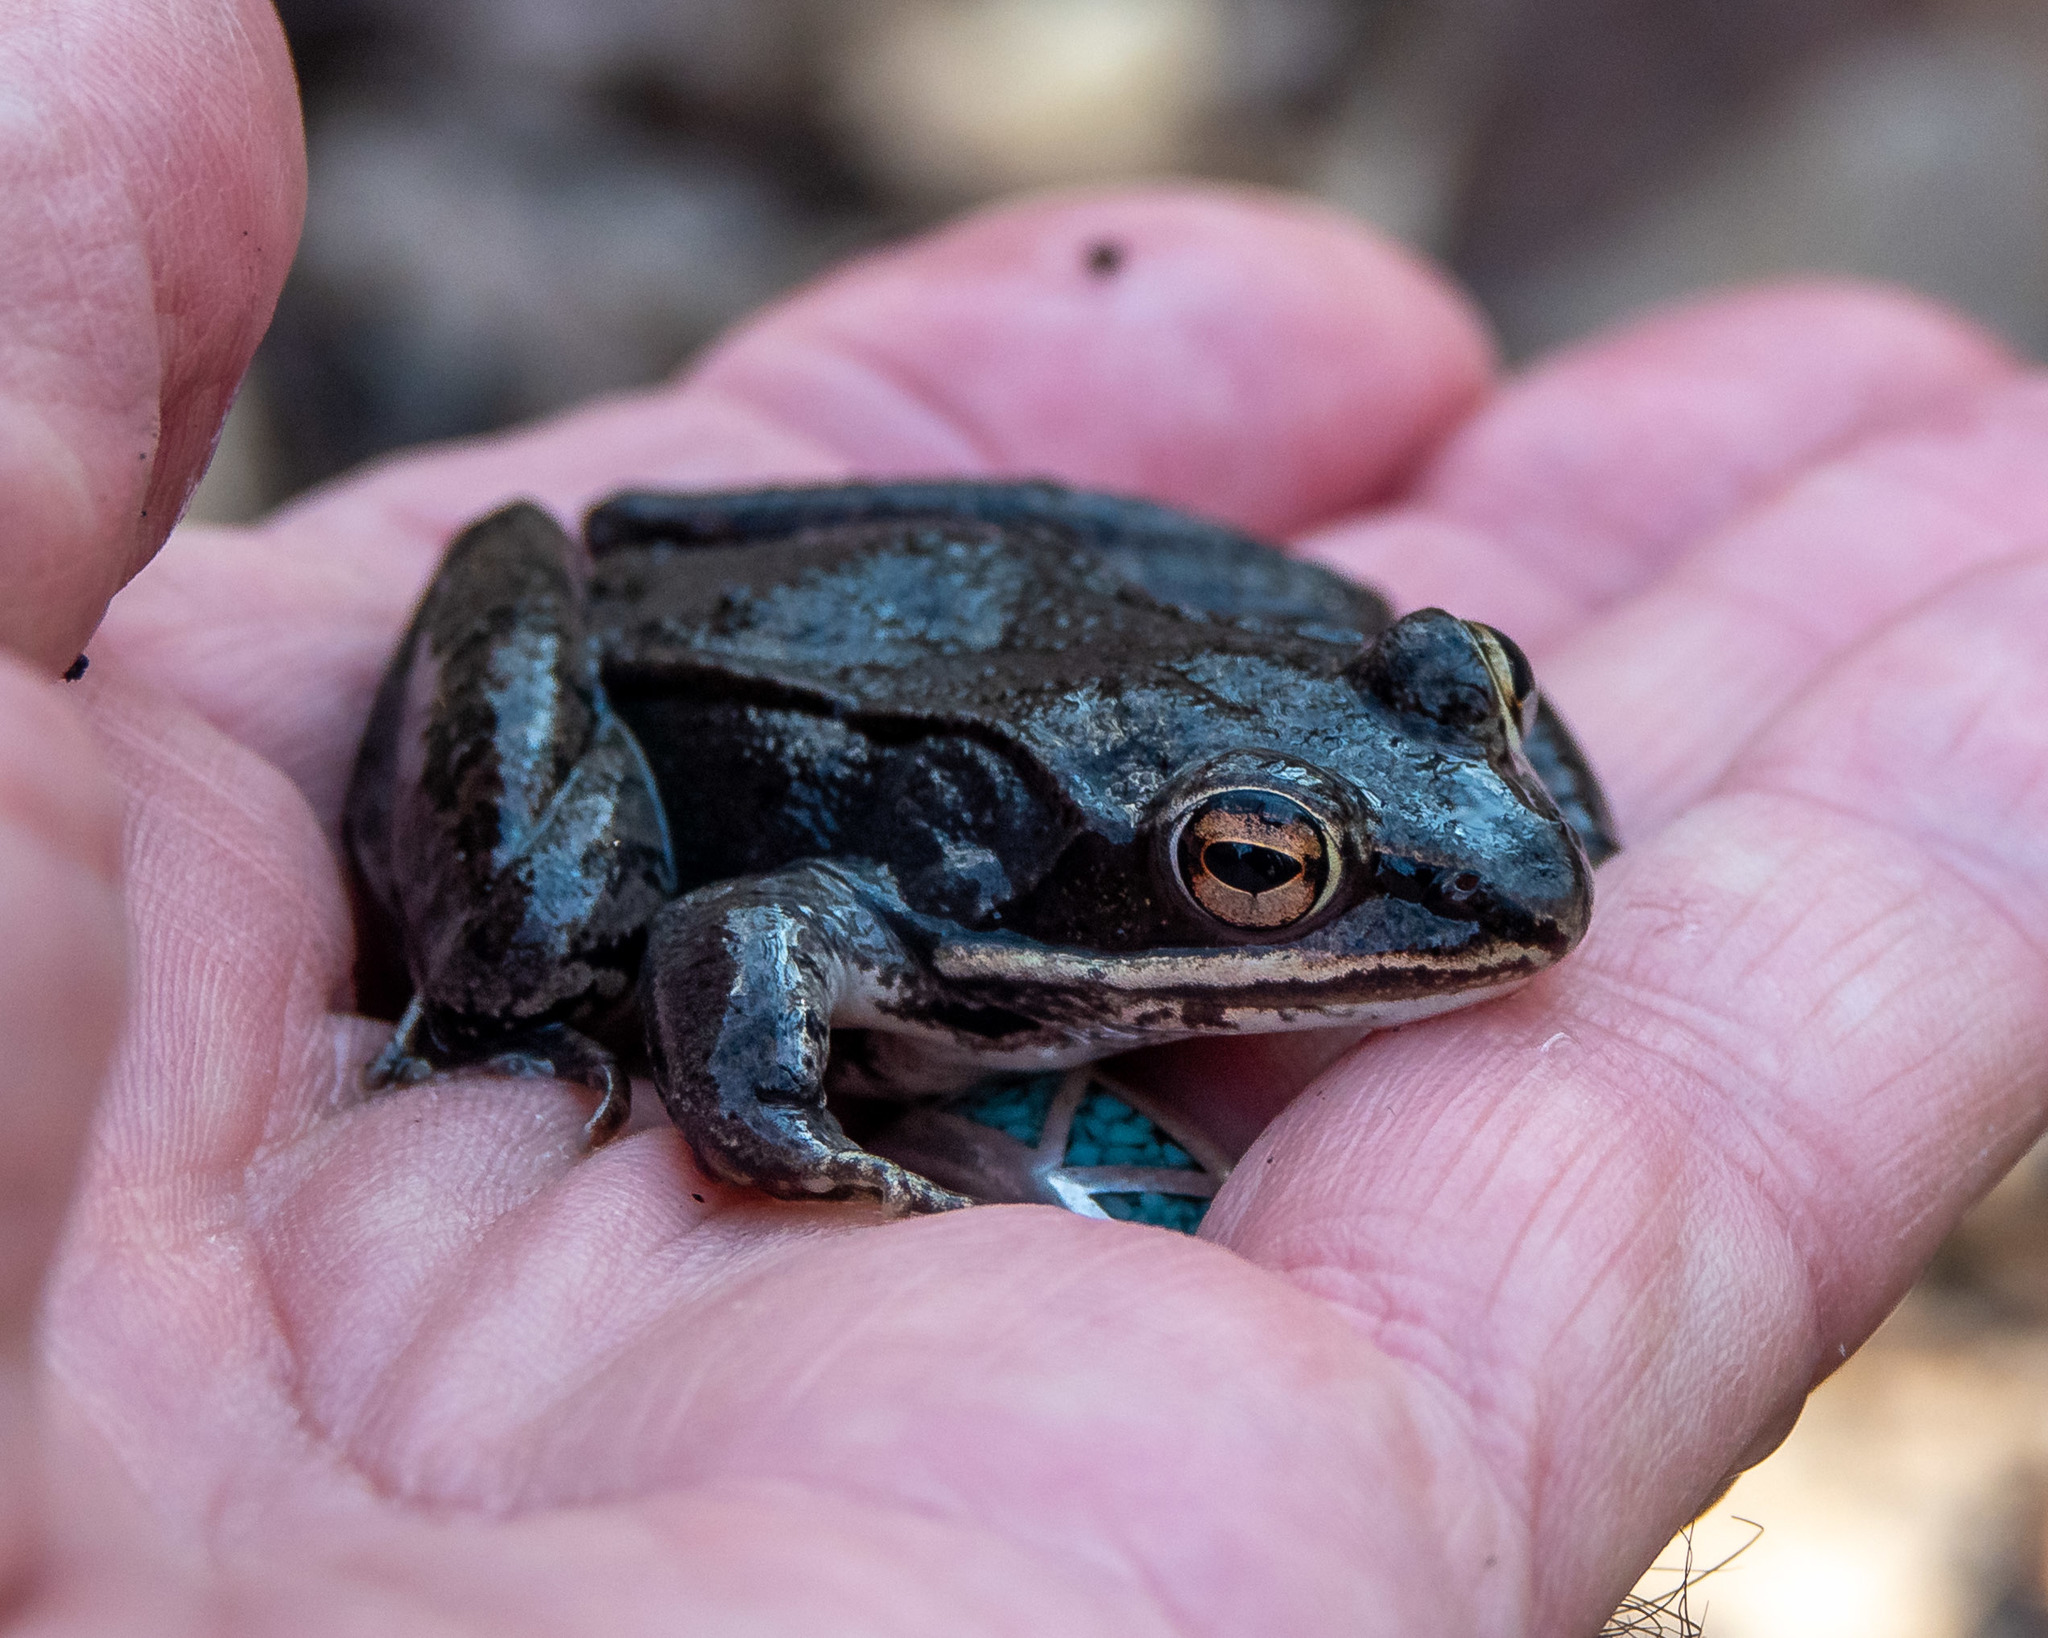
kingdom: Animalia
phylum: Chordata
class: Amphibia
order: Anura
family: Ranidae
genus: Lithobates
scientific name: Lithobates sylvaticus
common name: Wood frog
